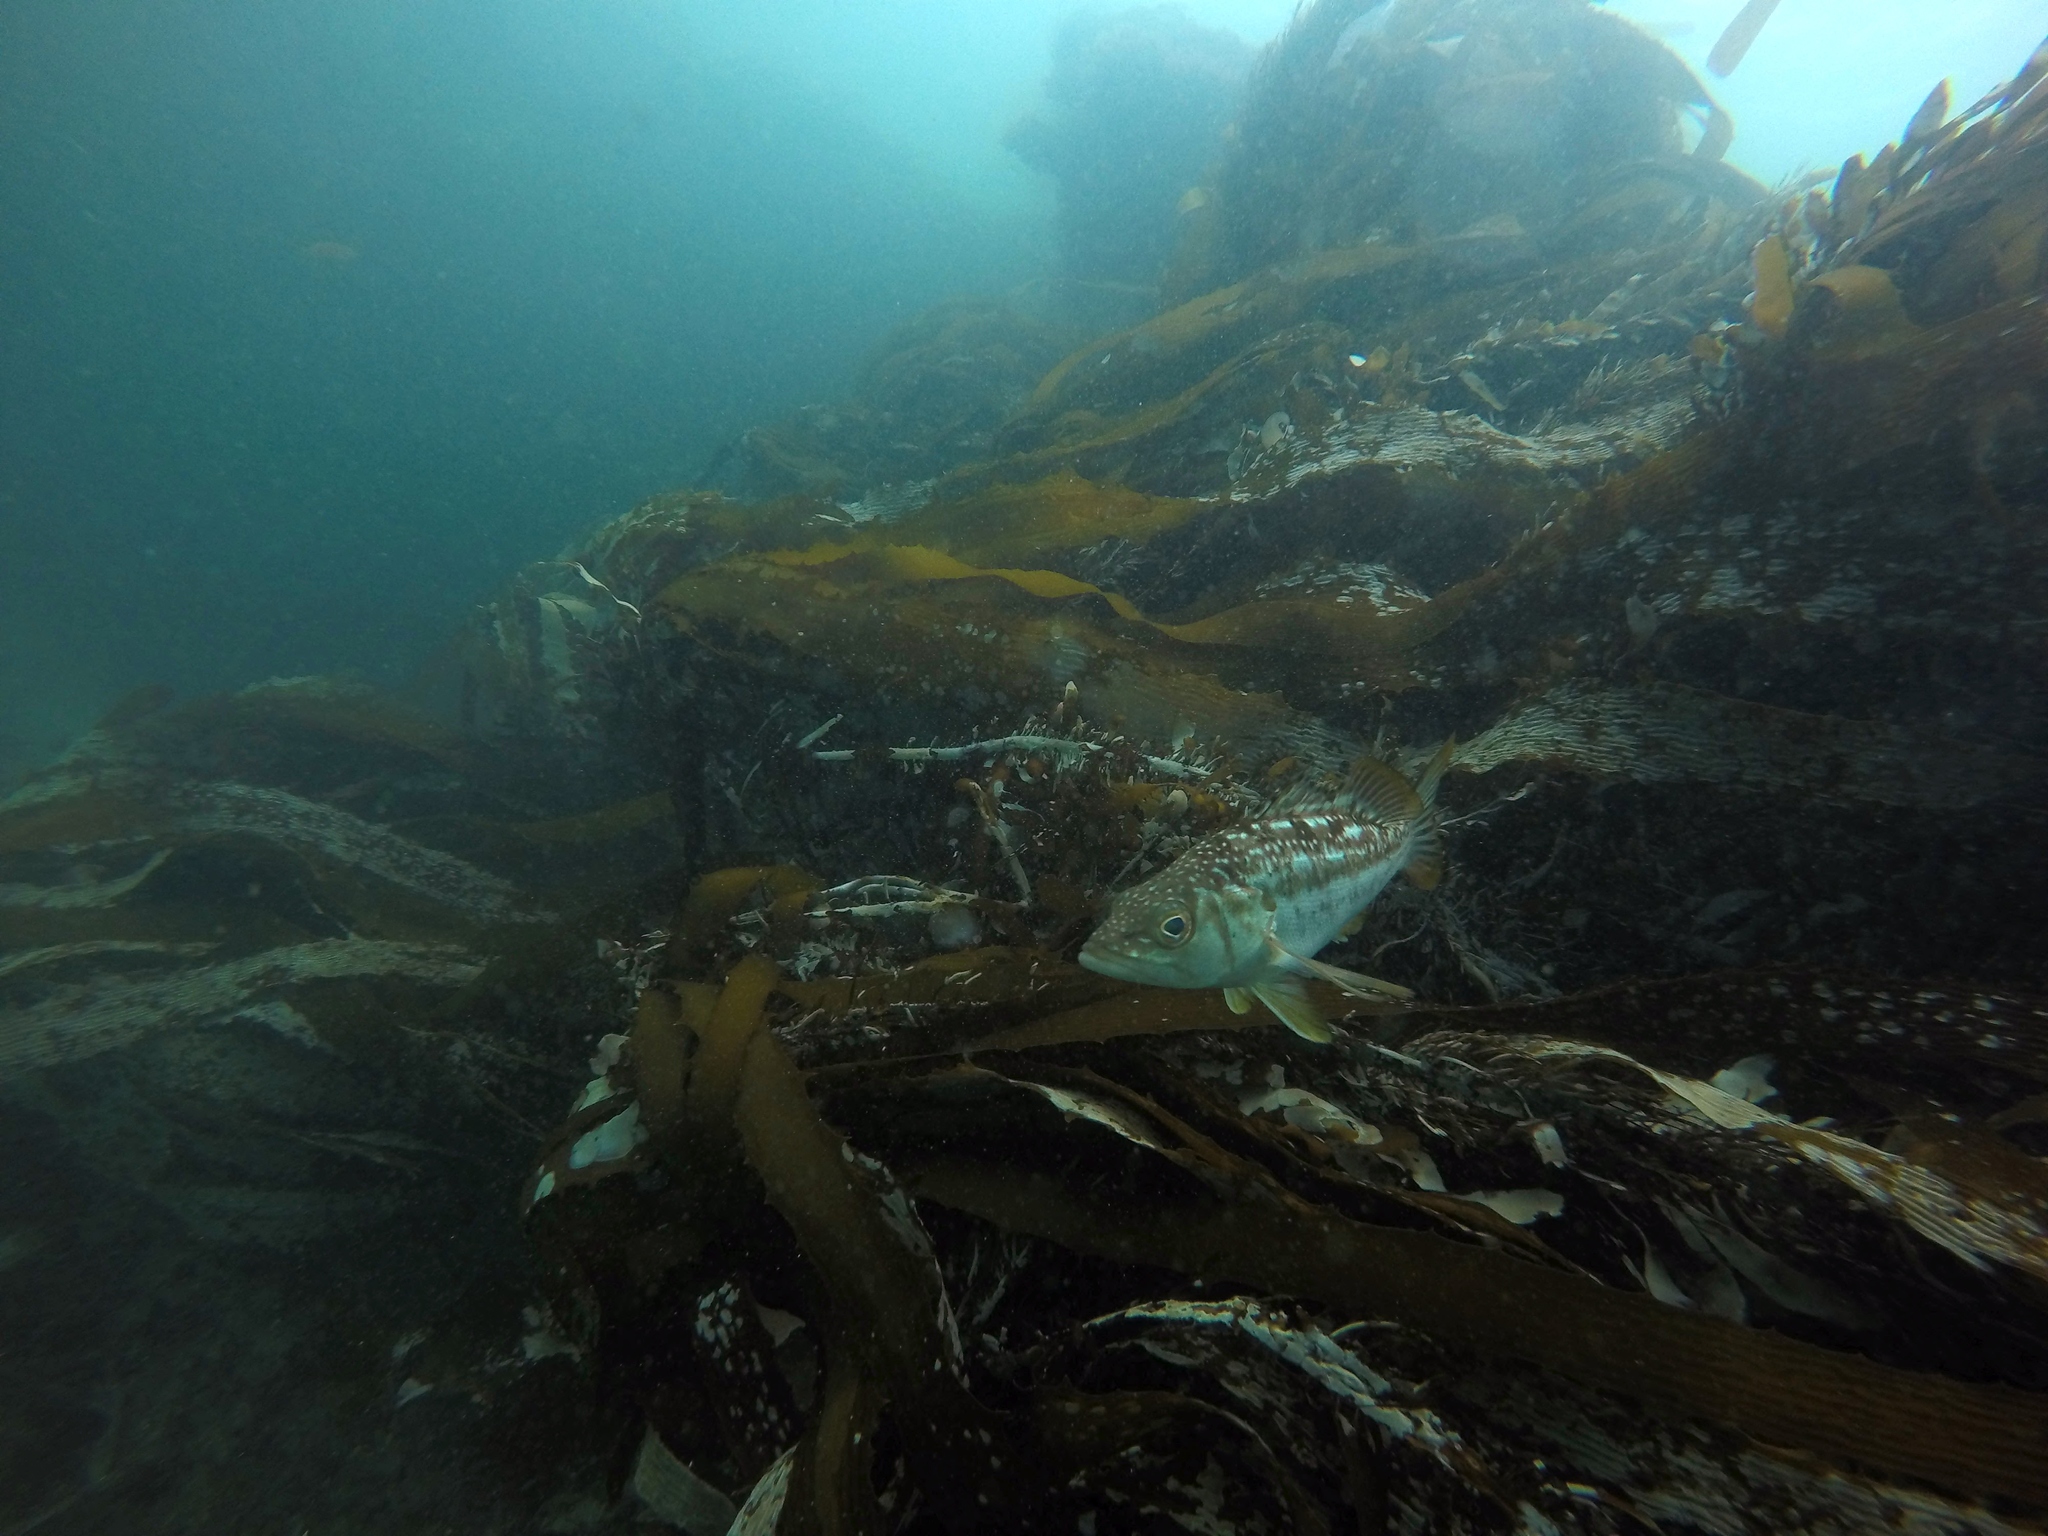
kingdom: Animalia
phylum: Chordata
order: Perciformes
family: Serranidae
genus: Paralabrax
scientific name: Paralabrax clathratus
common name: Kelp bass
